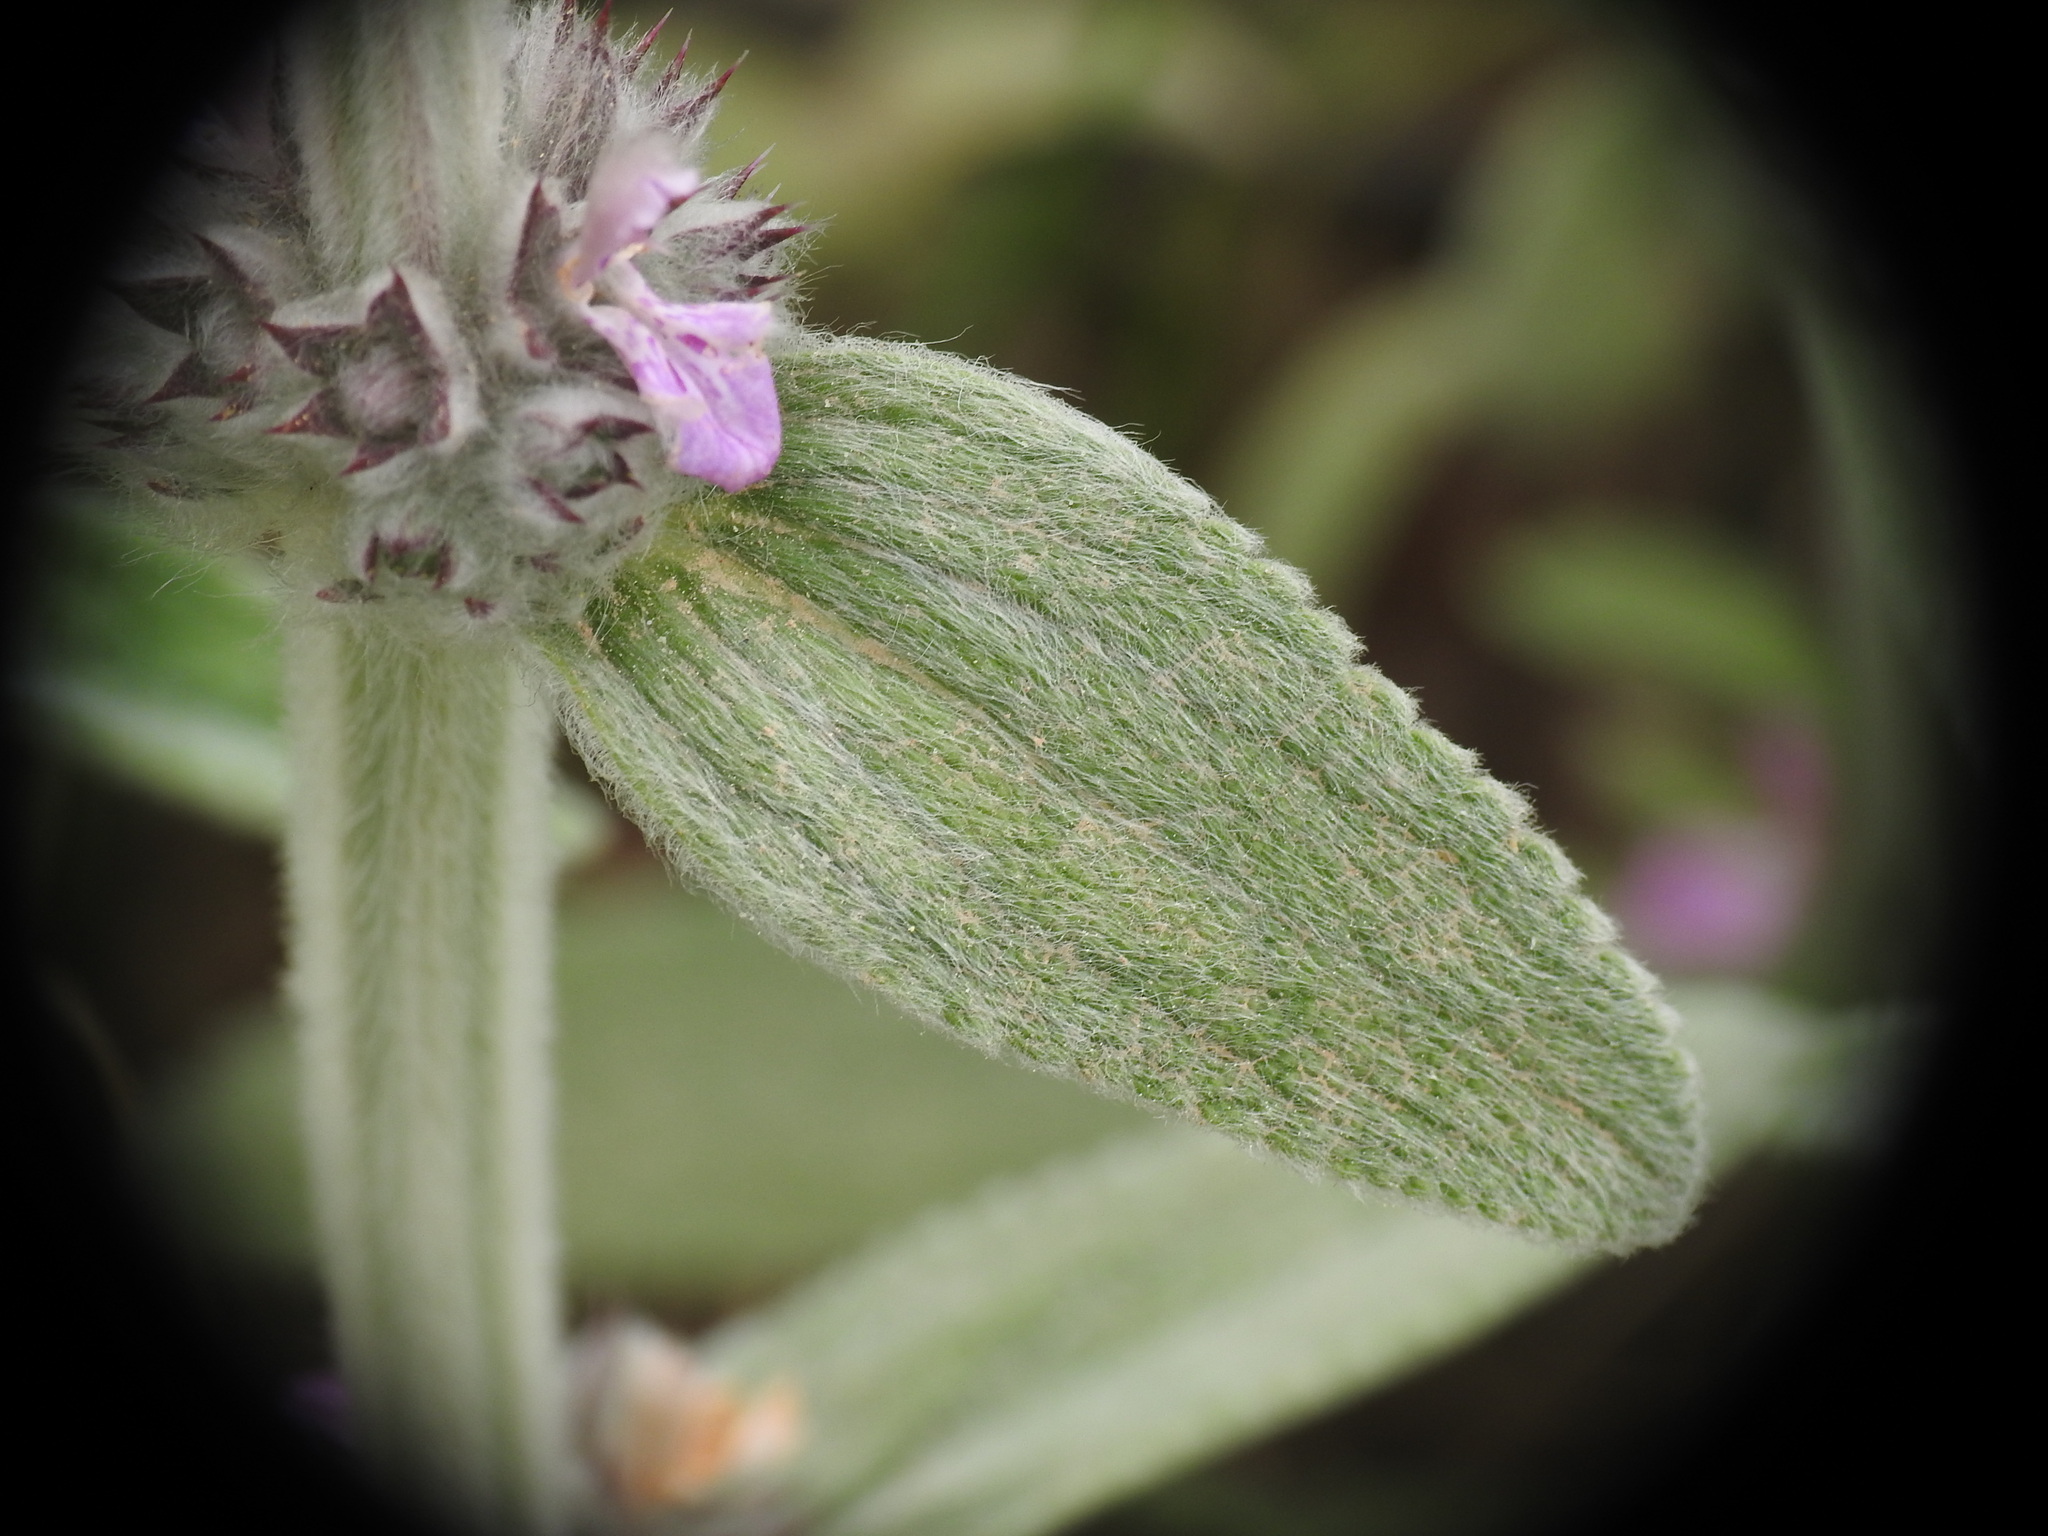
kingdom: Plantae
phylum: Tracheophyta
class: Magnoliopsida
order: Lamiales
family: Lamiaceae
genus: Stachys
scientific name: Stachys cretica
